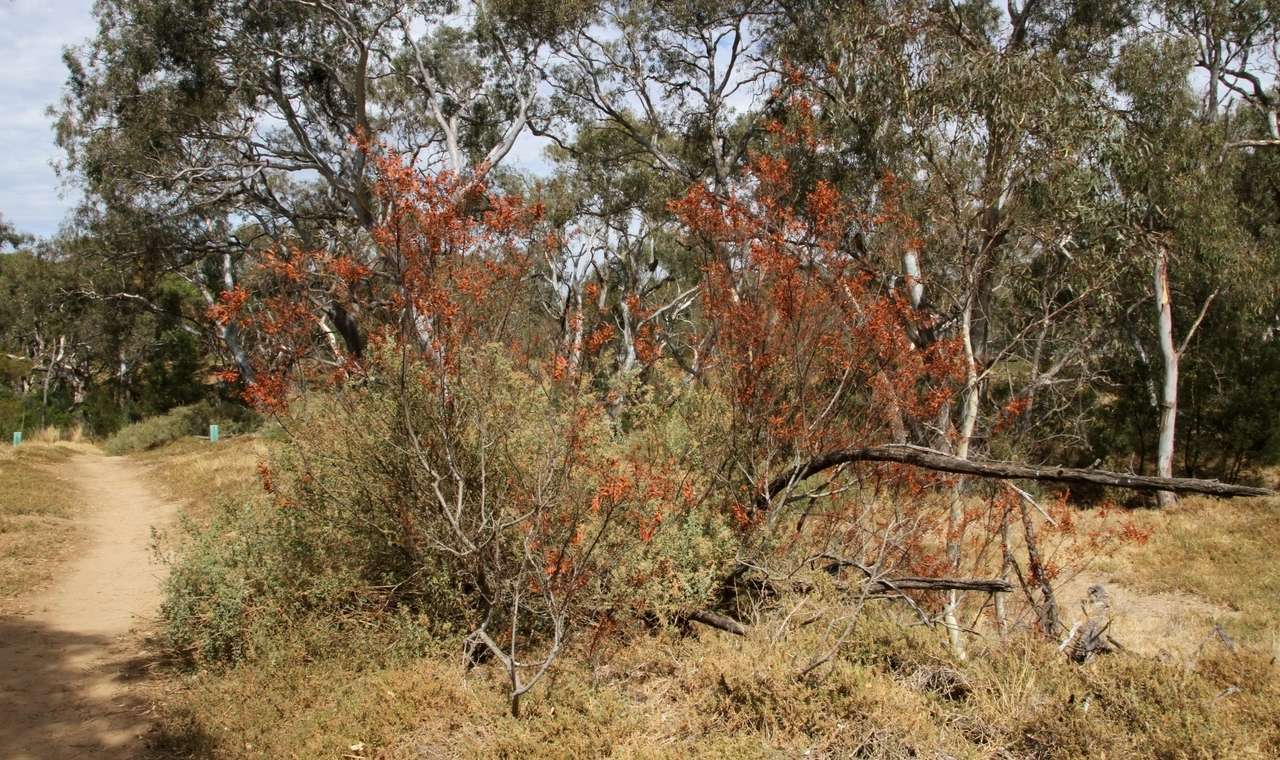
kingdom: Plantae
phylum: Tracheophyta
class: Magnoliopsida
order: Fabales
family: Fabaceae
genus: Acacia
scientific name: Acacia rostriformis
